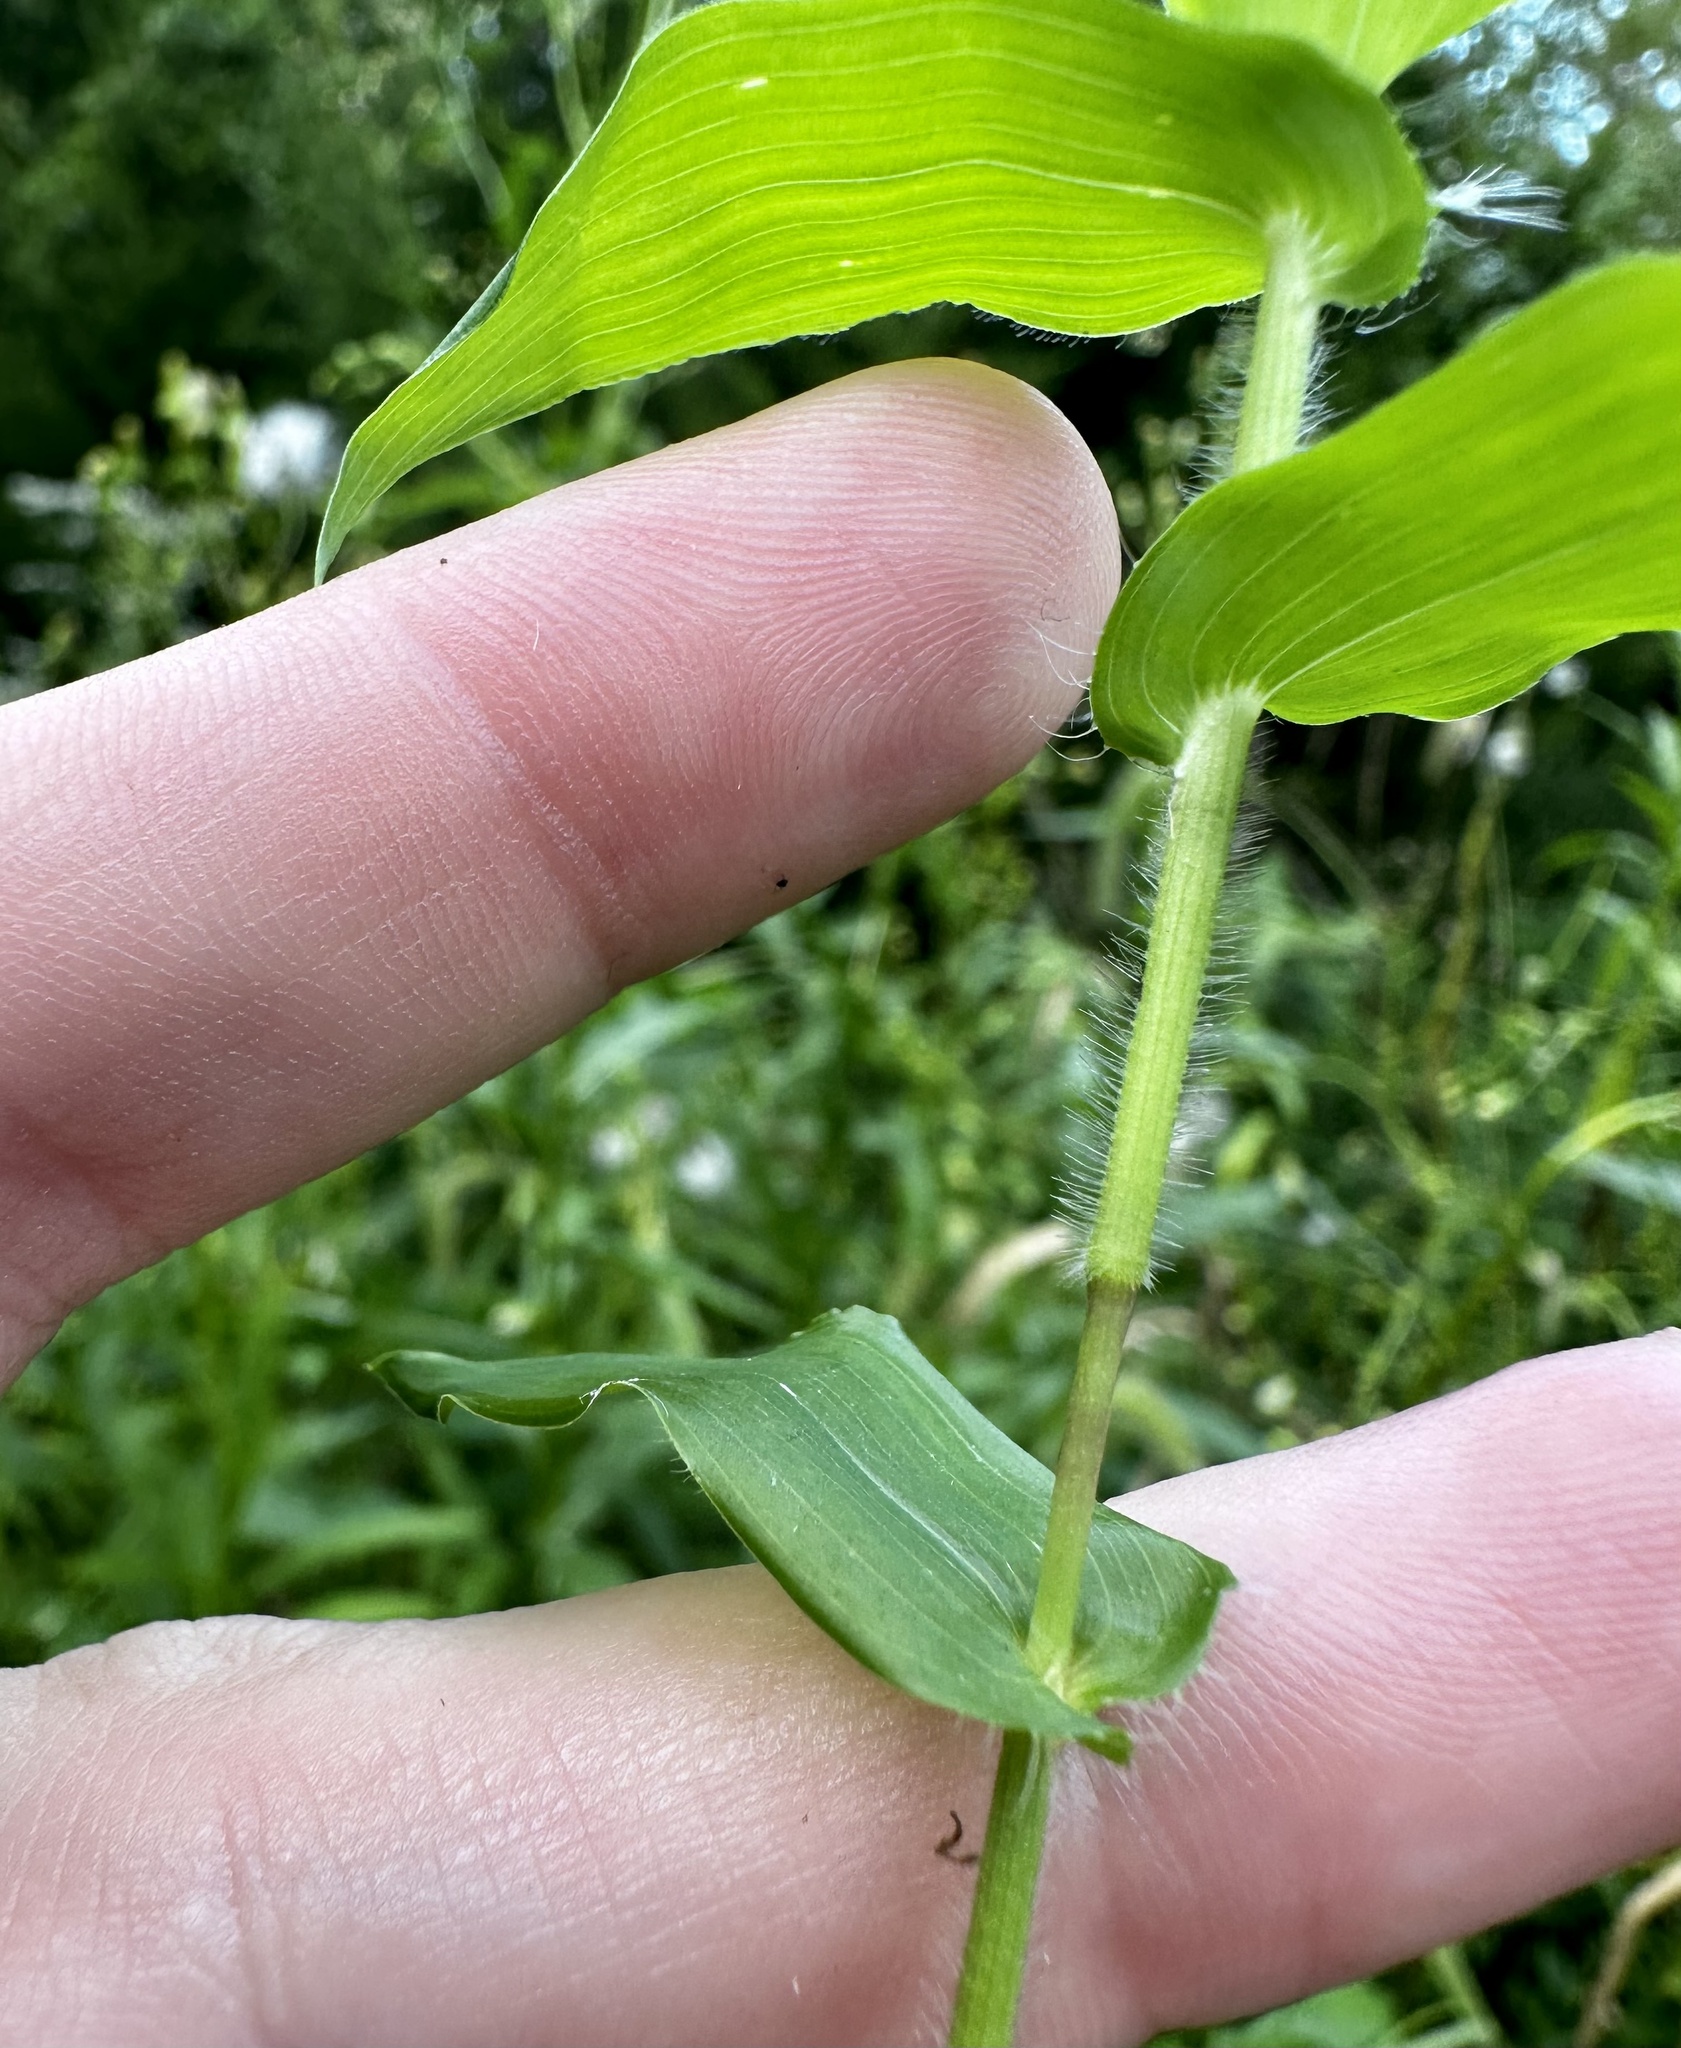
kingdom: Plantae
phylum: Tracheophyta
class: Liliopsida
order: Poales
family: Poaceae
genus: Arthraxon
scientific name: Arthraxon hispidus
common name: Small carpgrass
